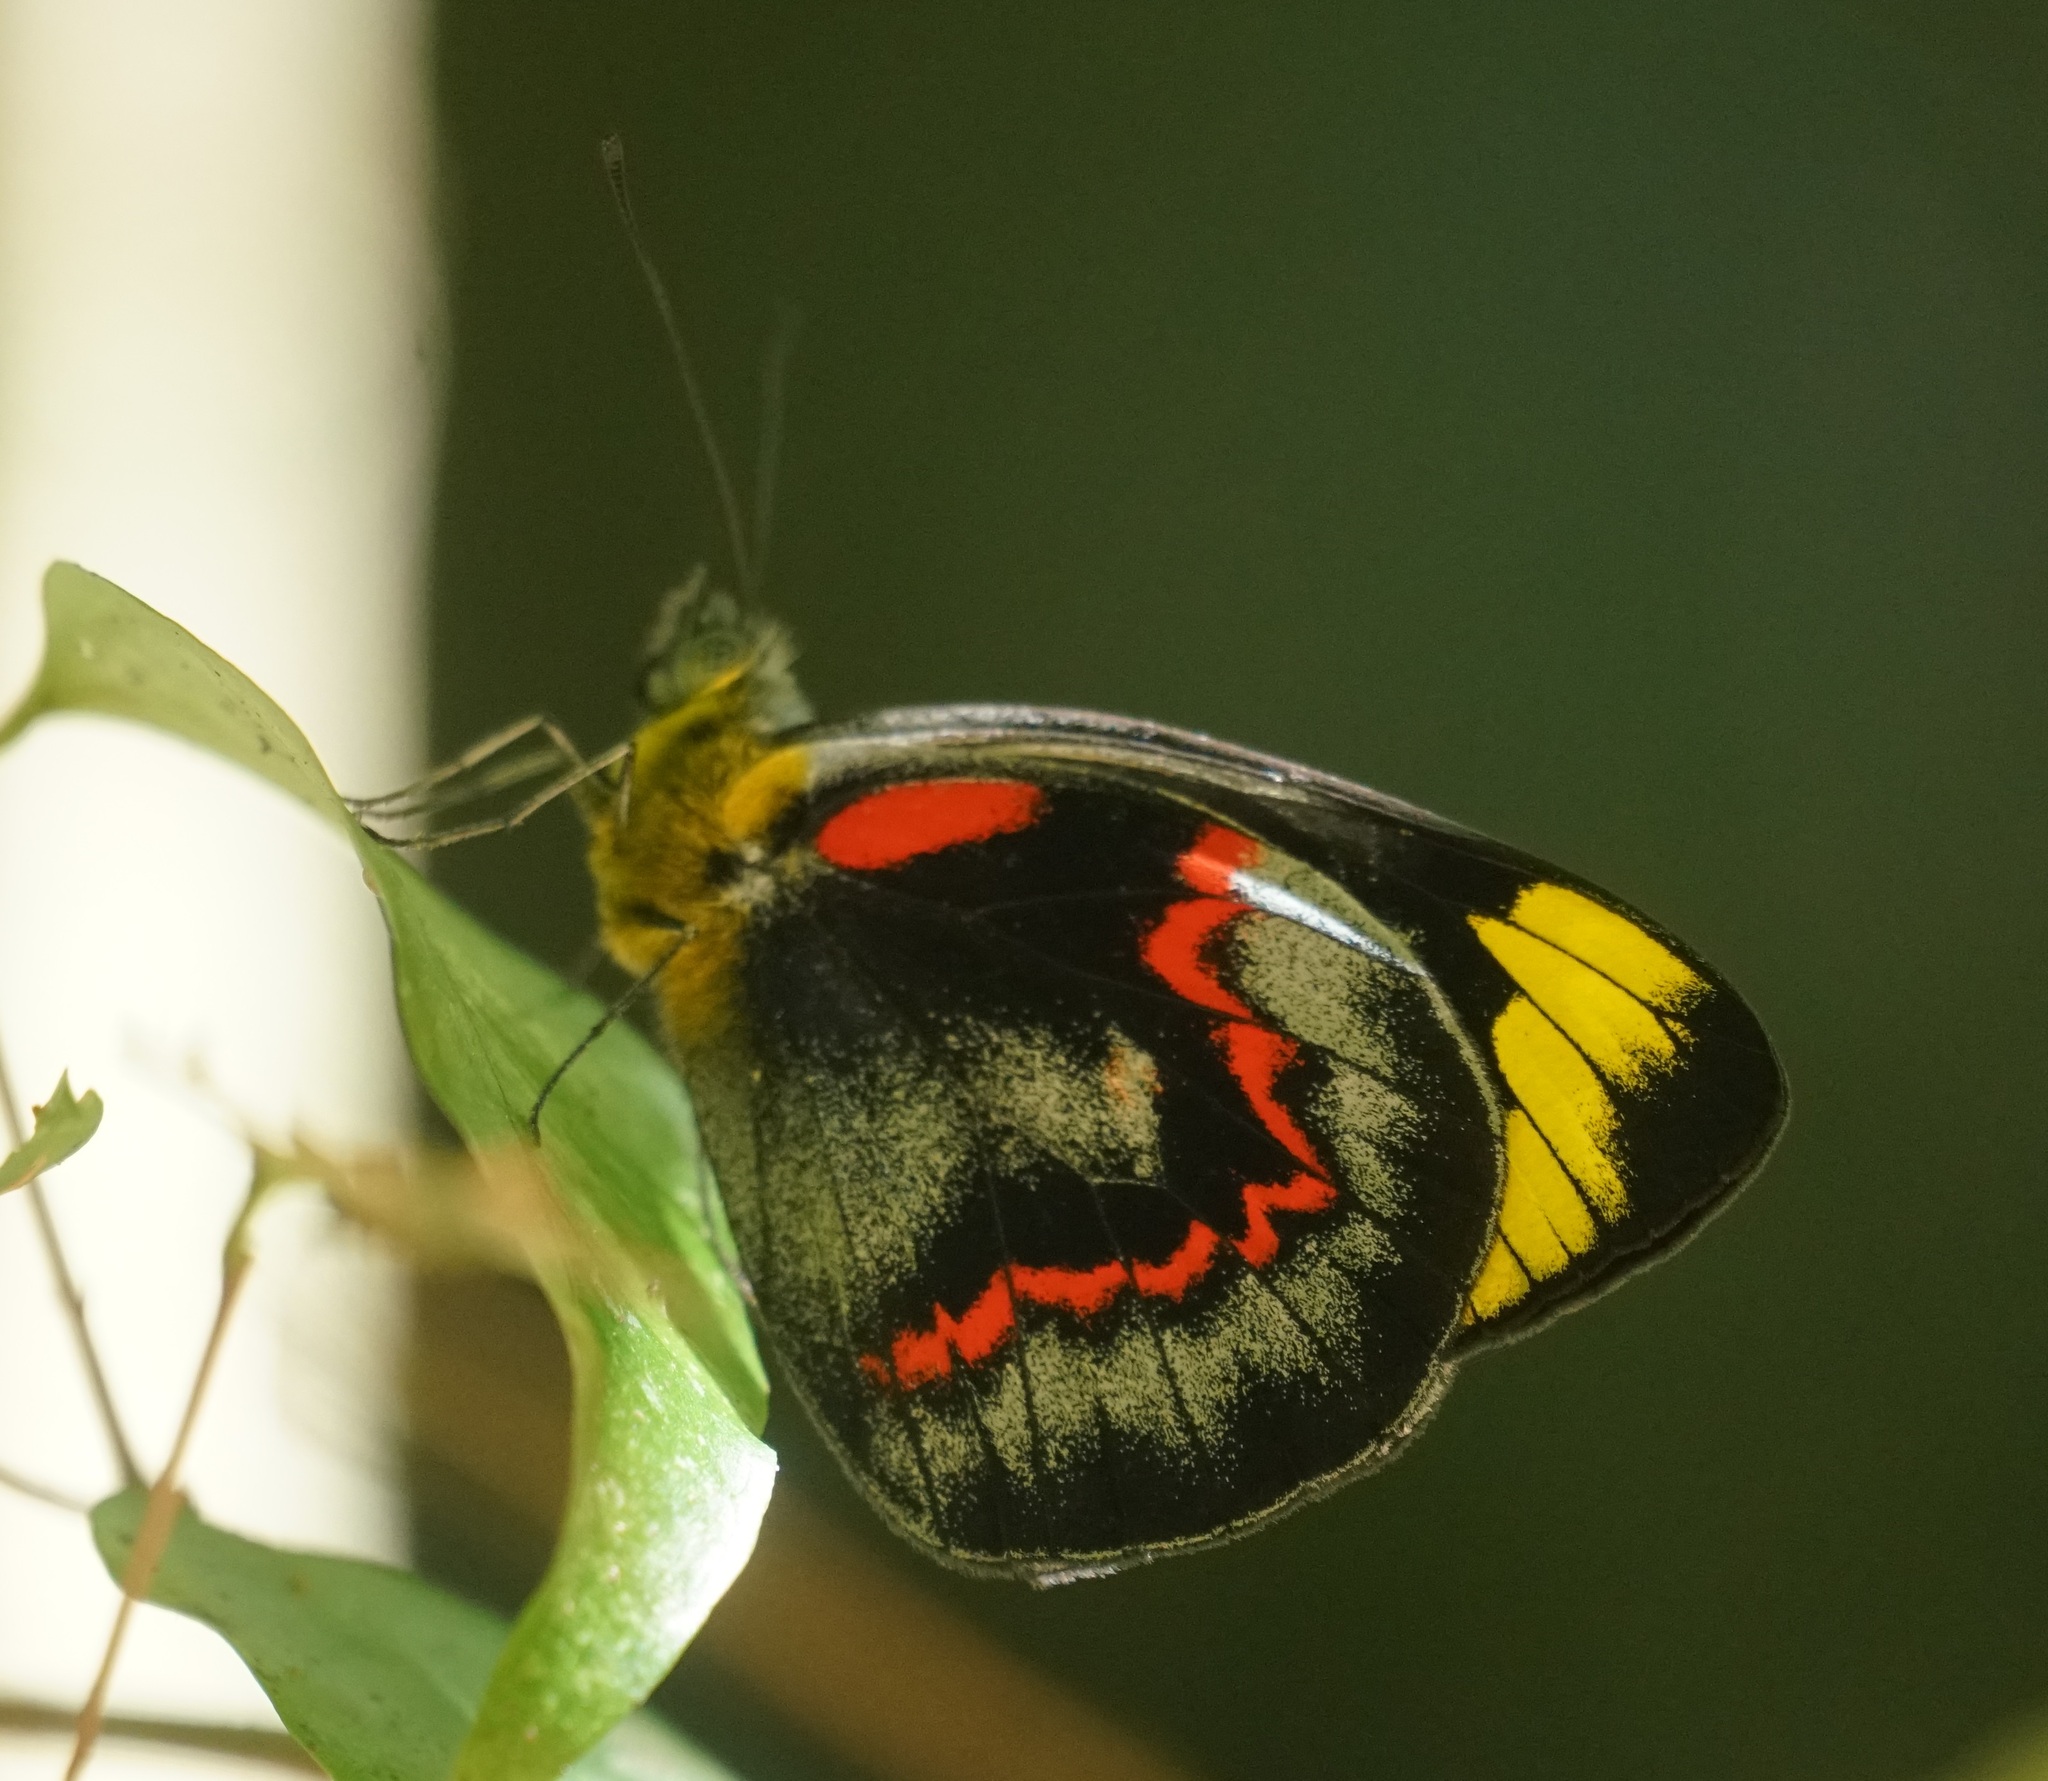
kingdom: Animalia
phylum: Arthropoda
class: Insecta
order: Lepidoptera
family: Pieridae
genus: Delias
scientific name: Delias nigrina
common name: Black jezebel
